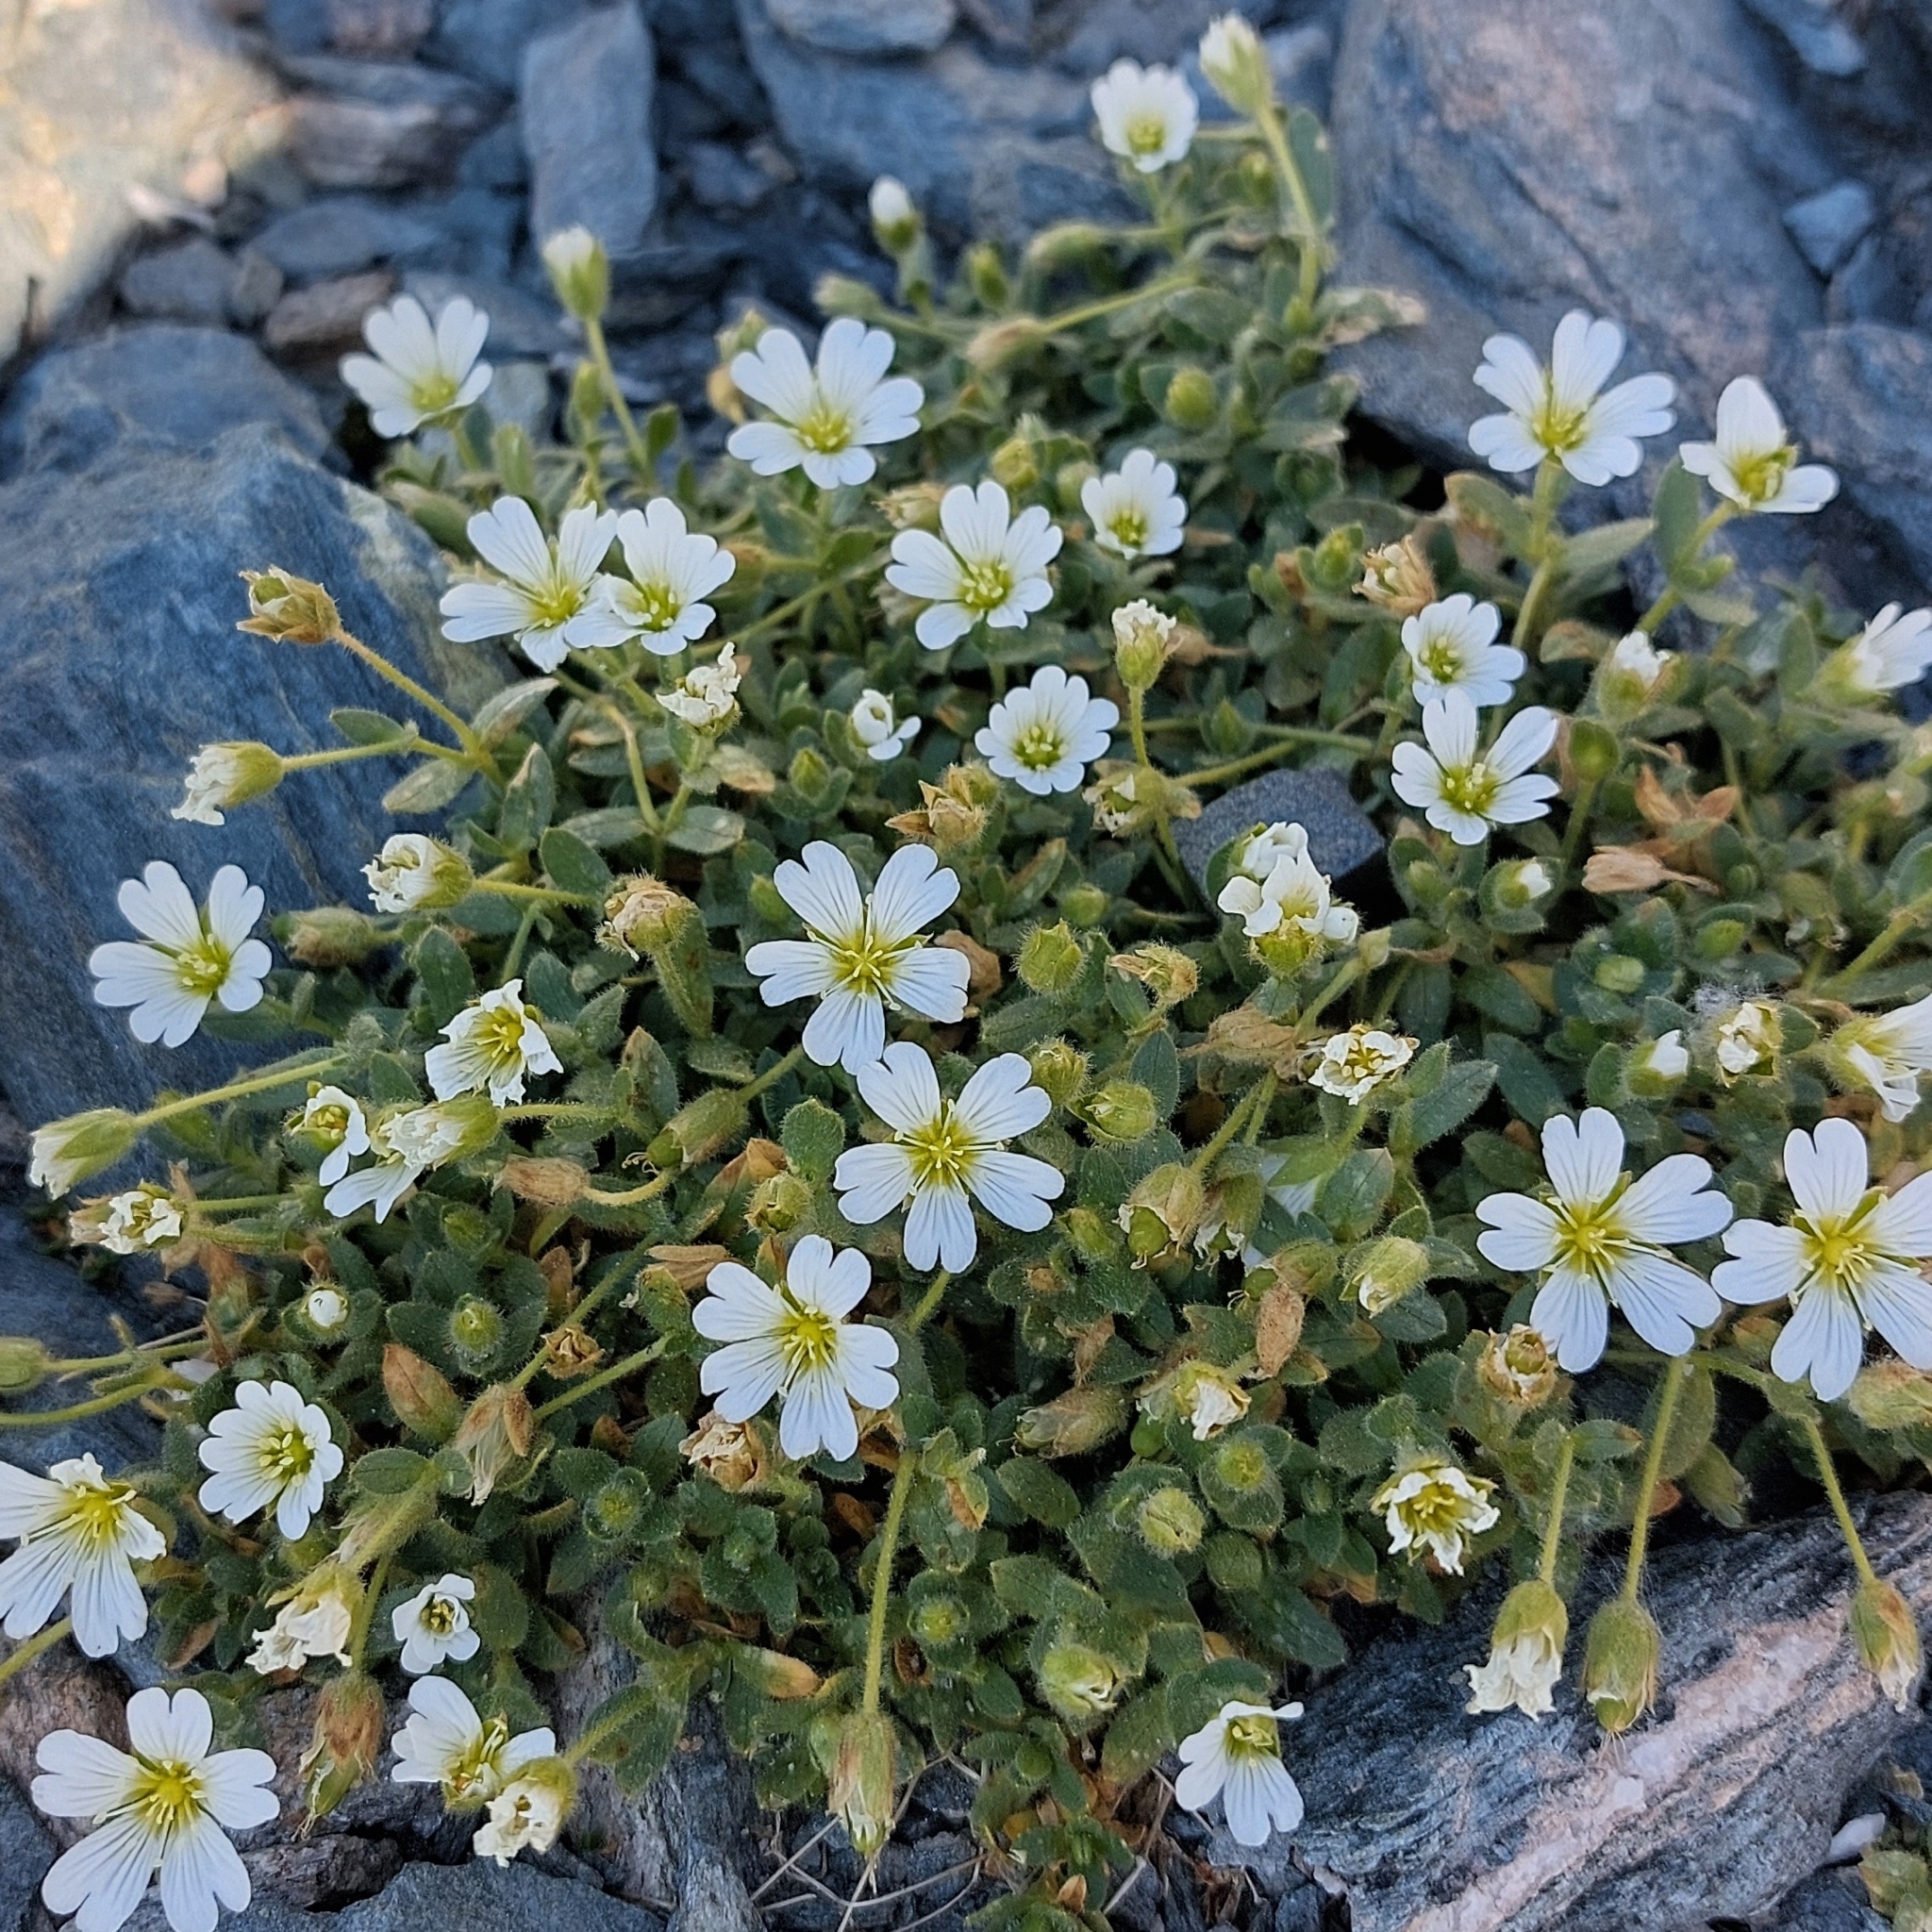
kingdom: Plantae
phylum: Tracheophyta
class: Magnoliopsida
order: Caryophyllales
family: Caryophyllaceae
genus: Cerastium
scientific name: Cerastium uniflorum
